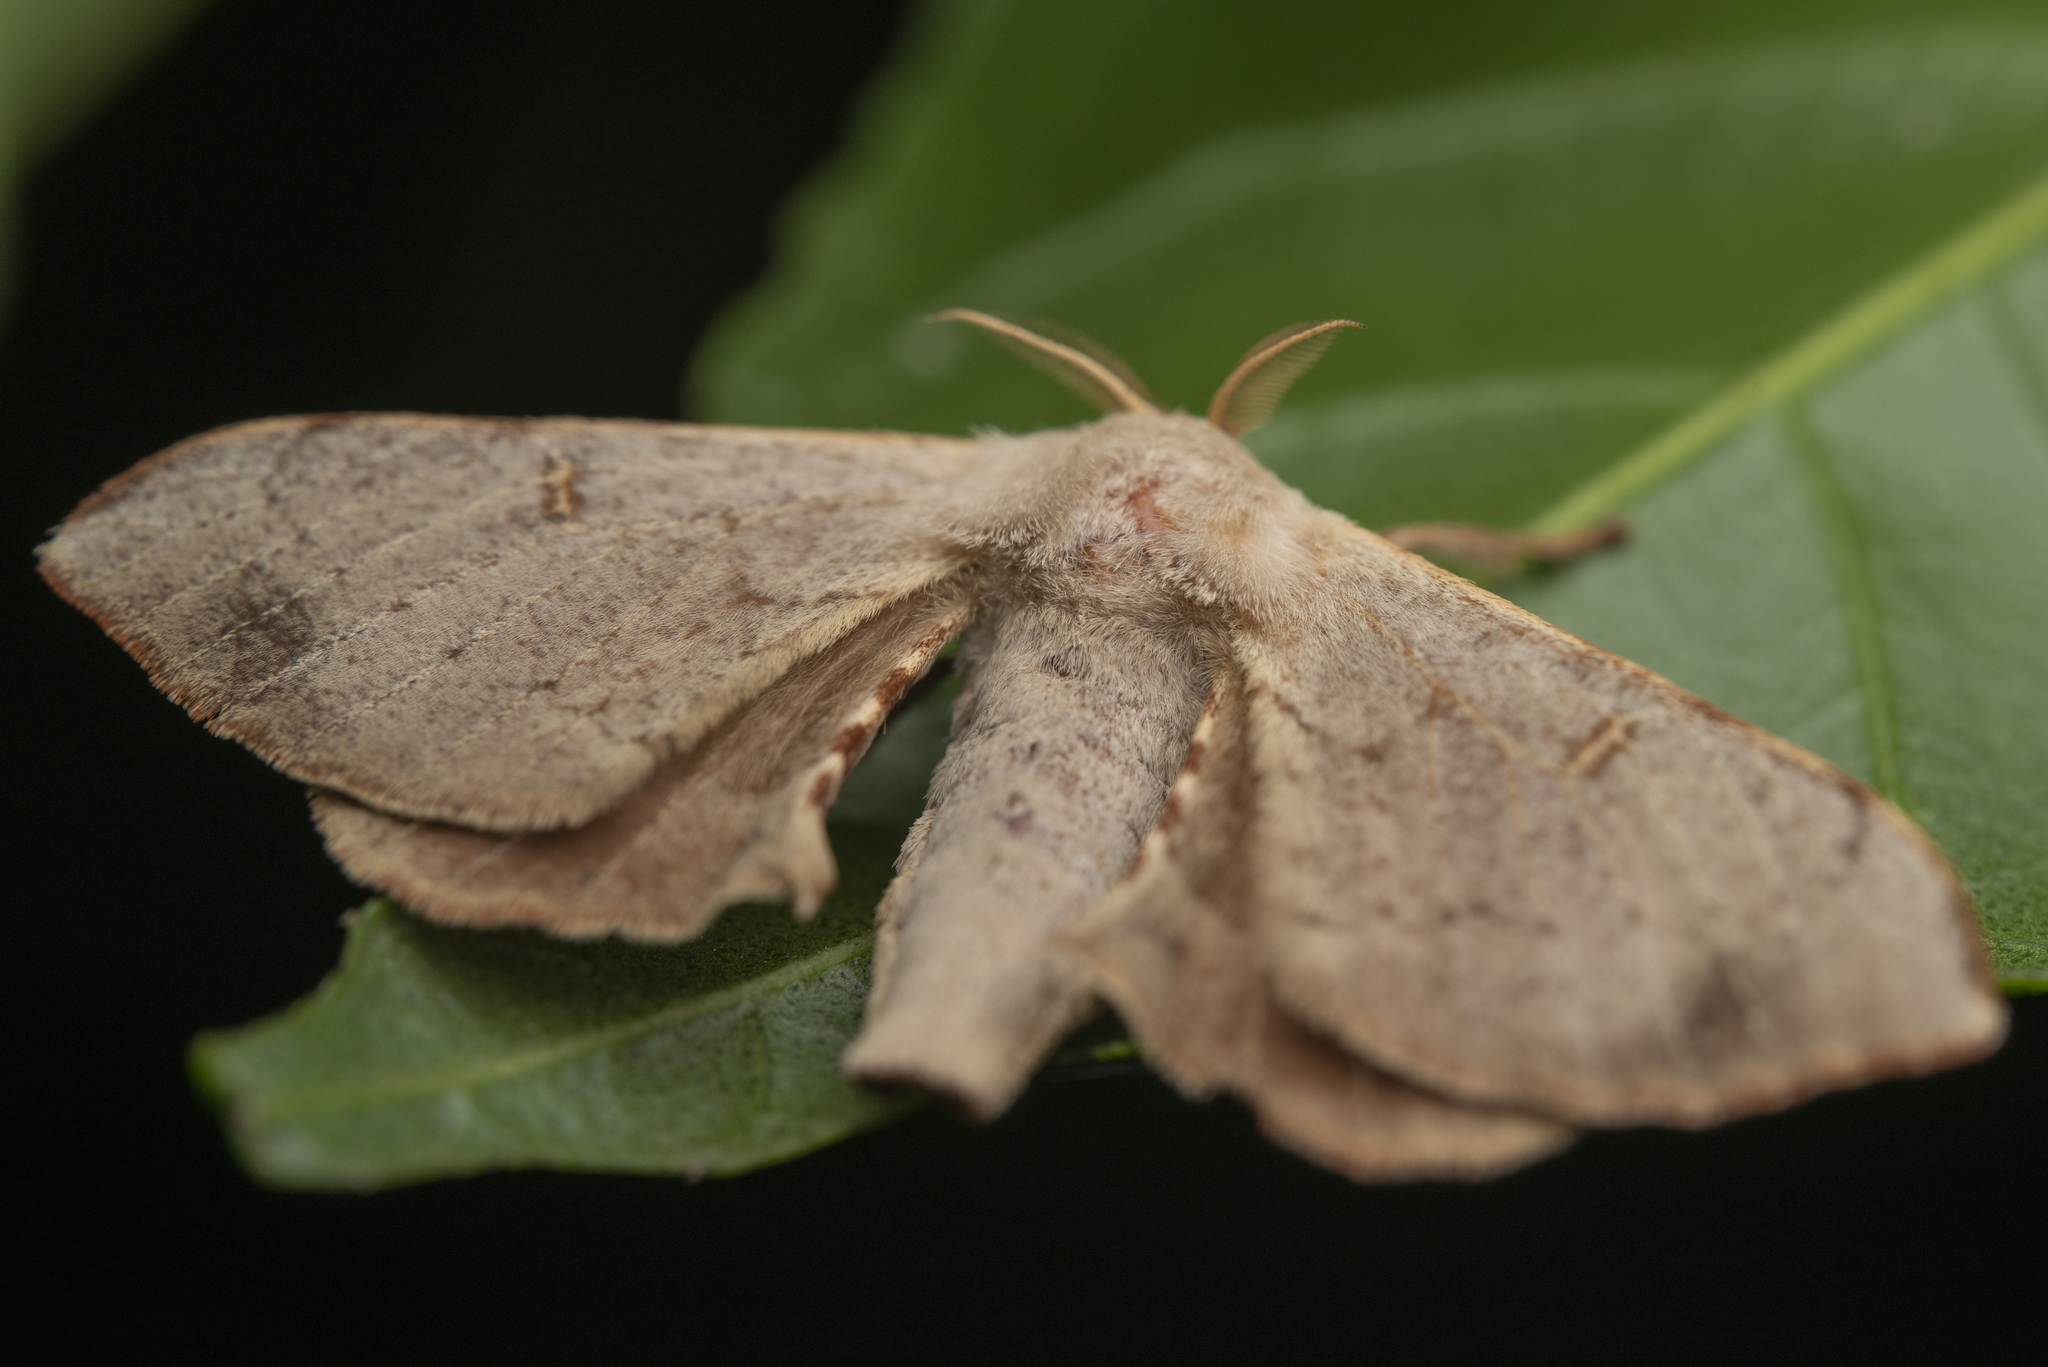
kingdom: Animalia
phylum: Arthropoda
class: Insecta
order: Lepidoptera
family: Bombycidae
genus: Trilocha
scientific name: Trilocha varians
